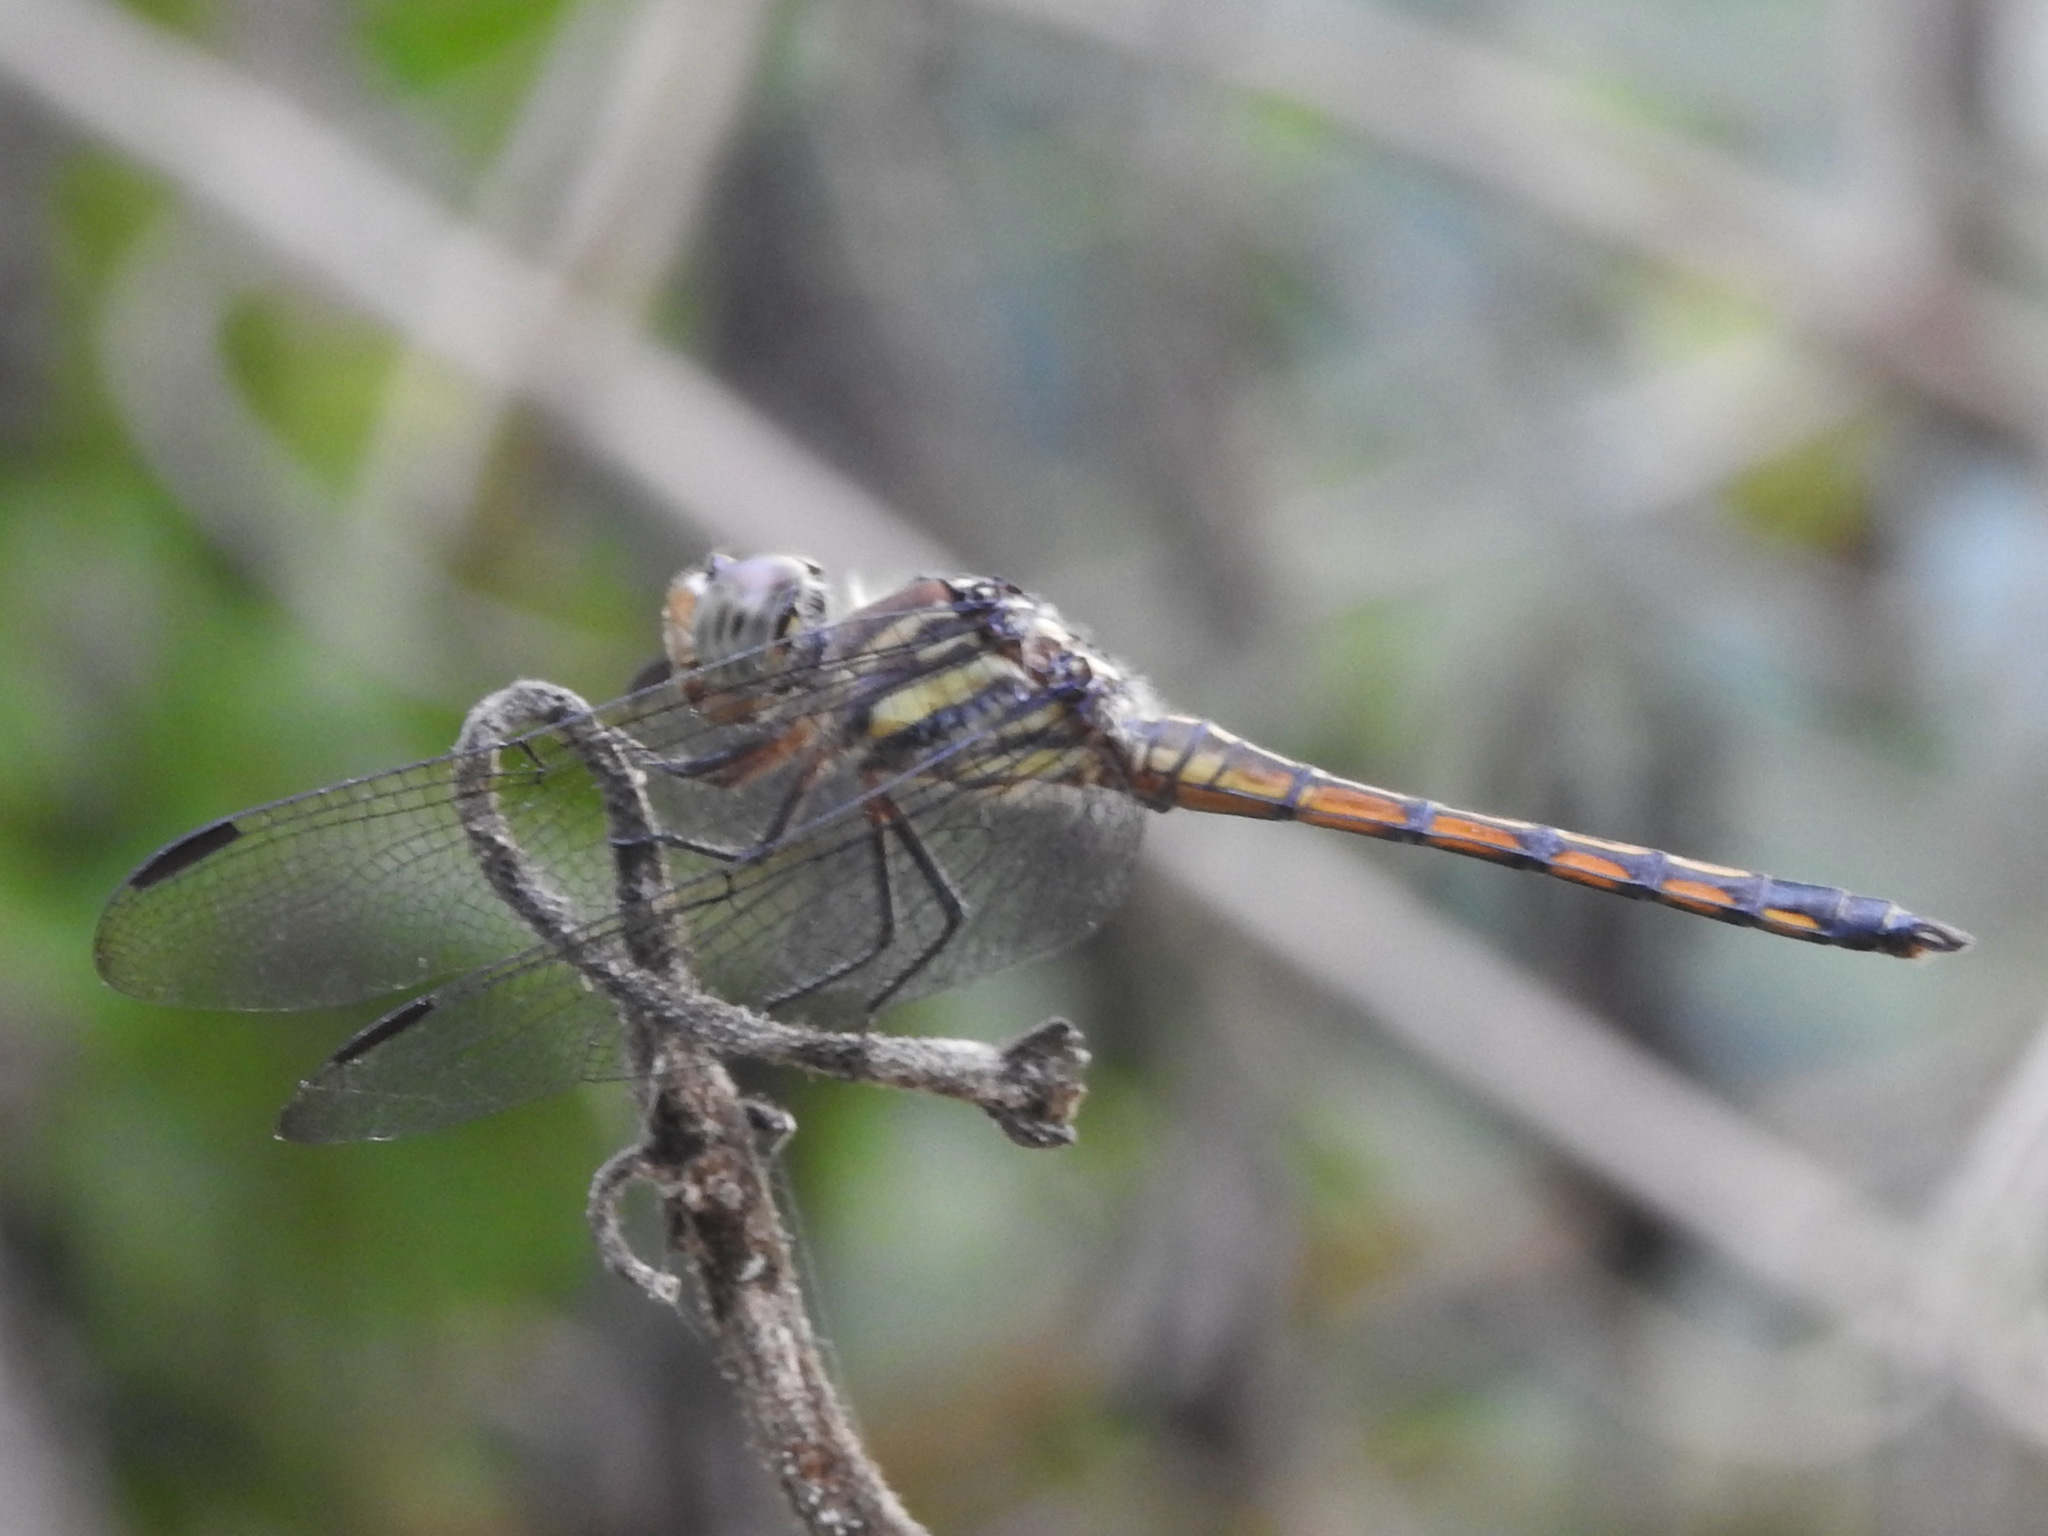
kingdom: Animalia
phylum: Arthropoda
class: Insecta
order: Odonata
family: Libellulidae
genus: Potamarcha
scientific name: Potamarcha congener
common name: Blue chaser
